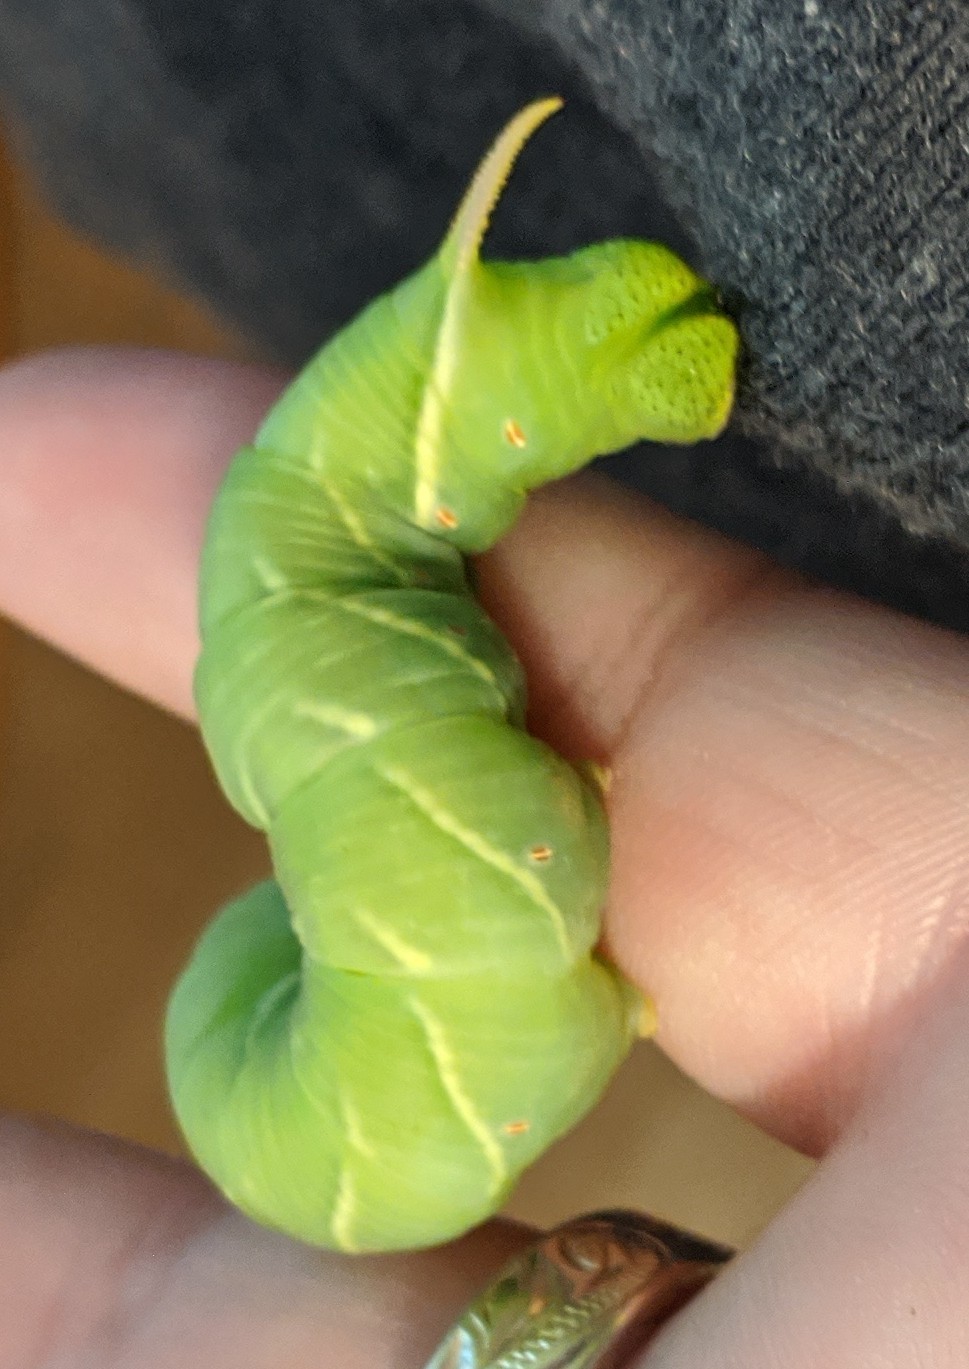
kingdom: Animalia
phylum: Arthropoda
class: Insecta
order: Lepidoptera
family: Sphingidae
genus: Ceratomia
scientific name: Ceratomia undulosa
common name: Waved sphinx
